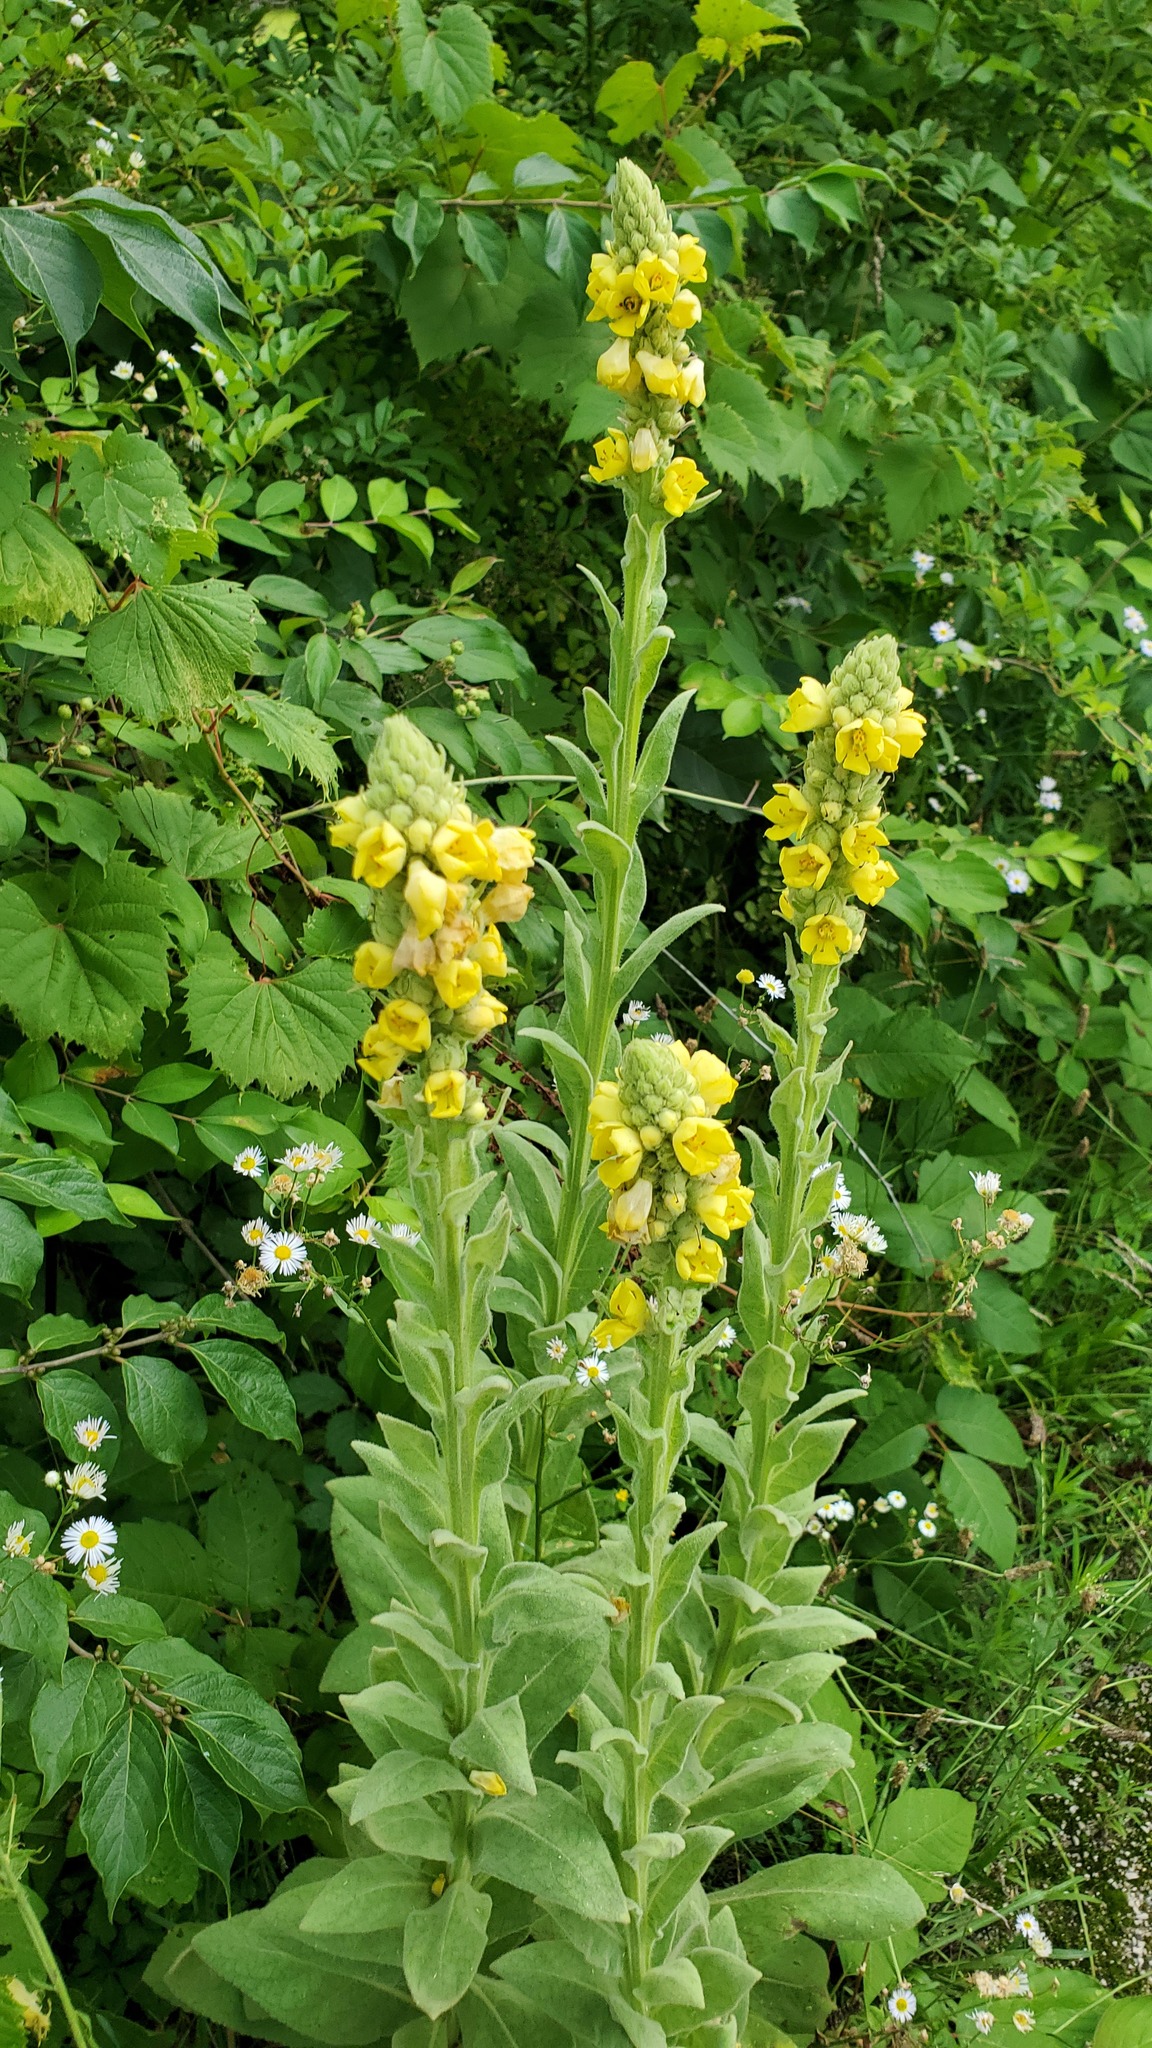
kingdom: Plantae
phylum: Tracheophyta
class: Magnoliopsida
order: Lamiales
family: Scrophulariaceae
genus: Verbascum
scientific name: Verbascum thapsus
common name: Common mullein
